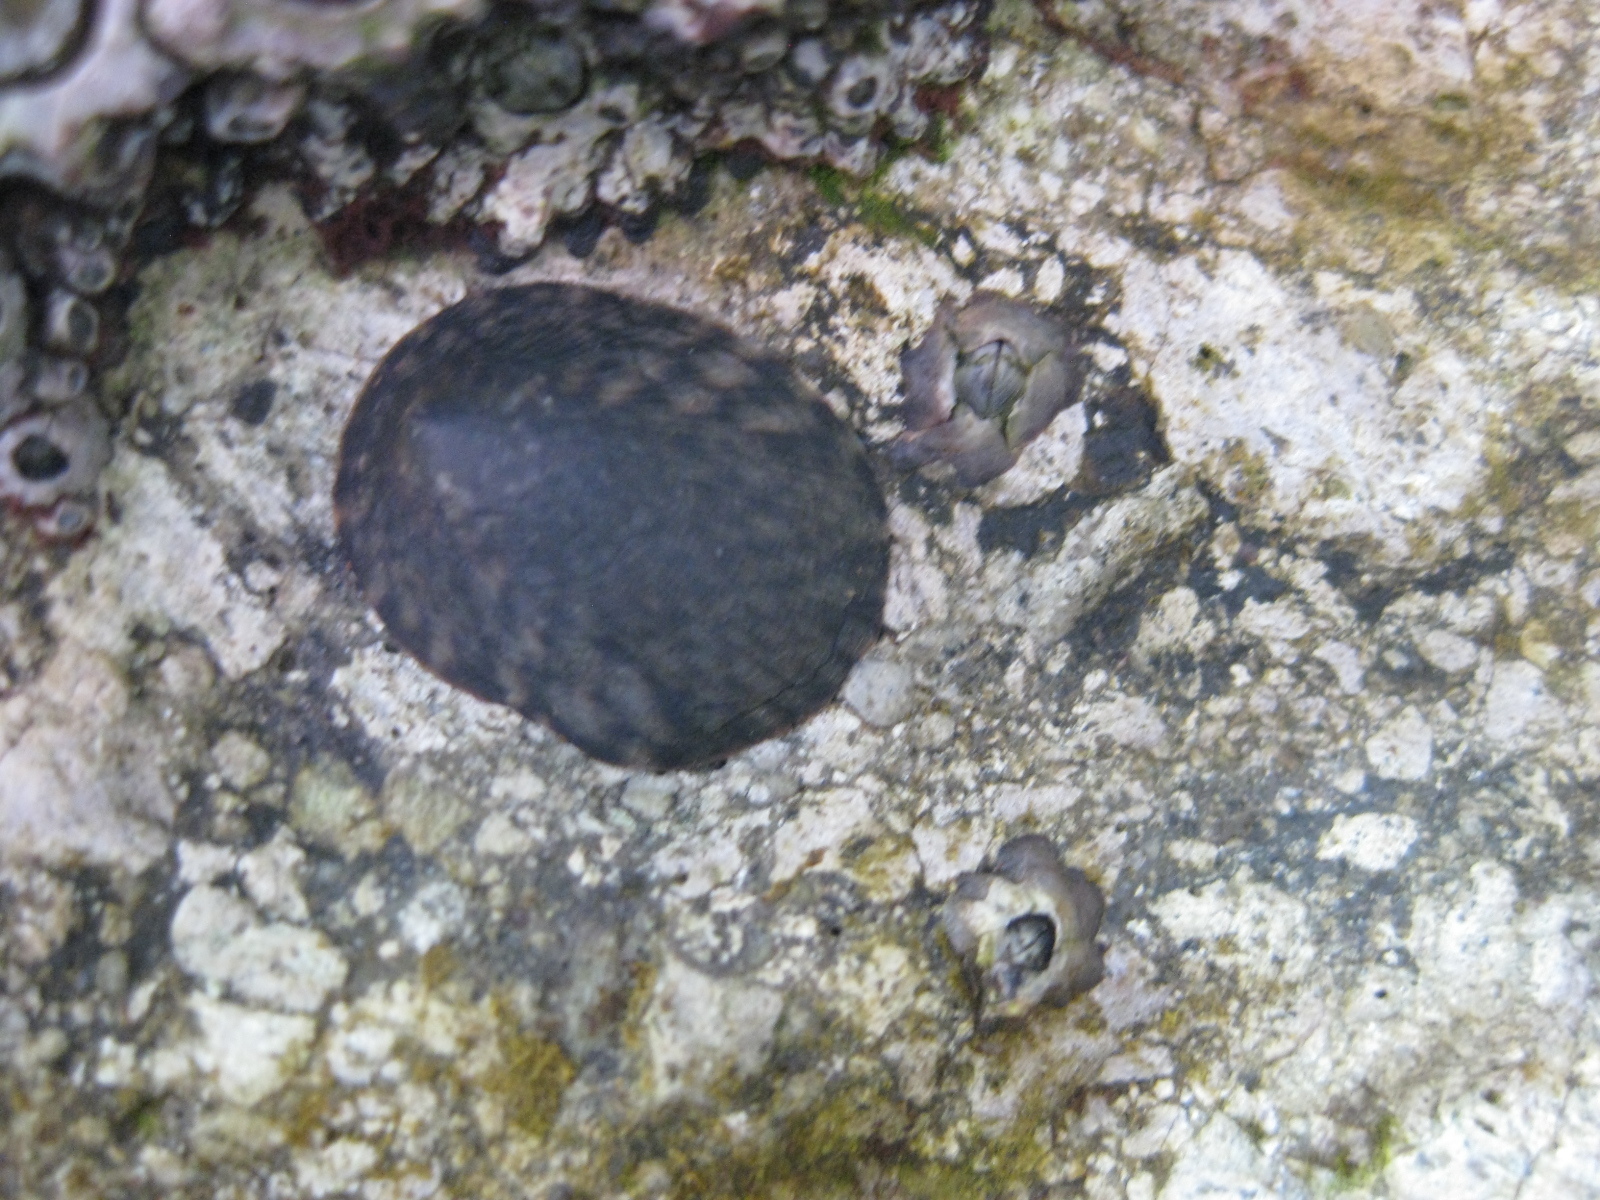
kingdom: Animalia
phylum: Mollusca
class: Gastropoda
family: Lottiidae
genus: Notoacmea
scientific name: Notoacmea pileopsis
